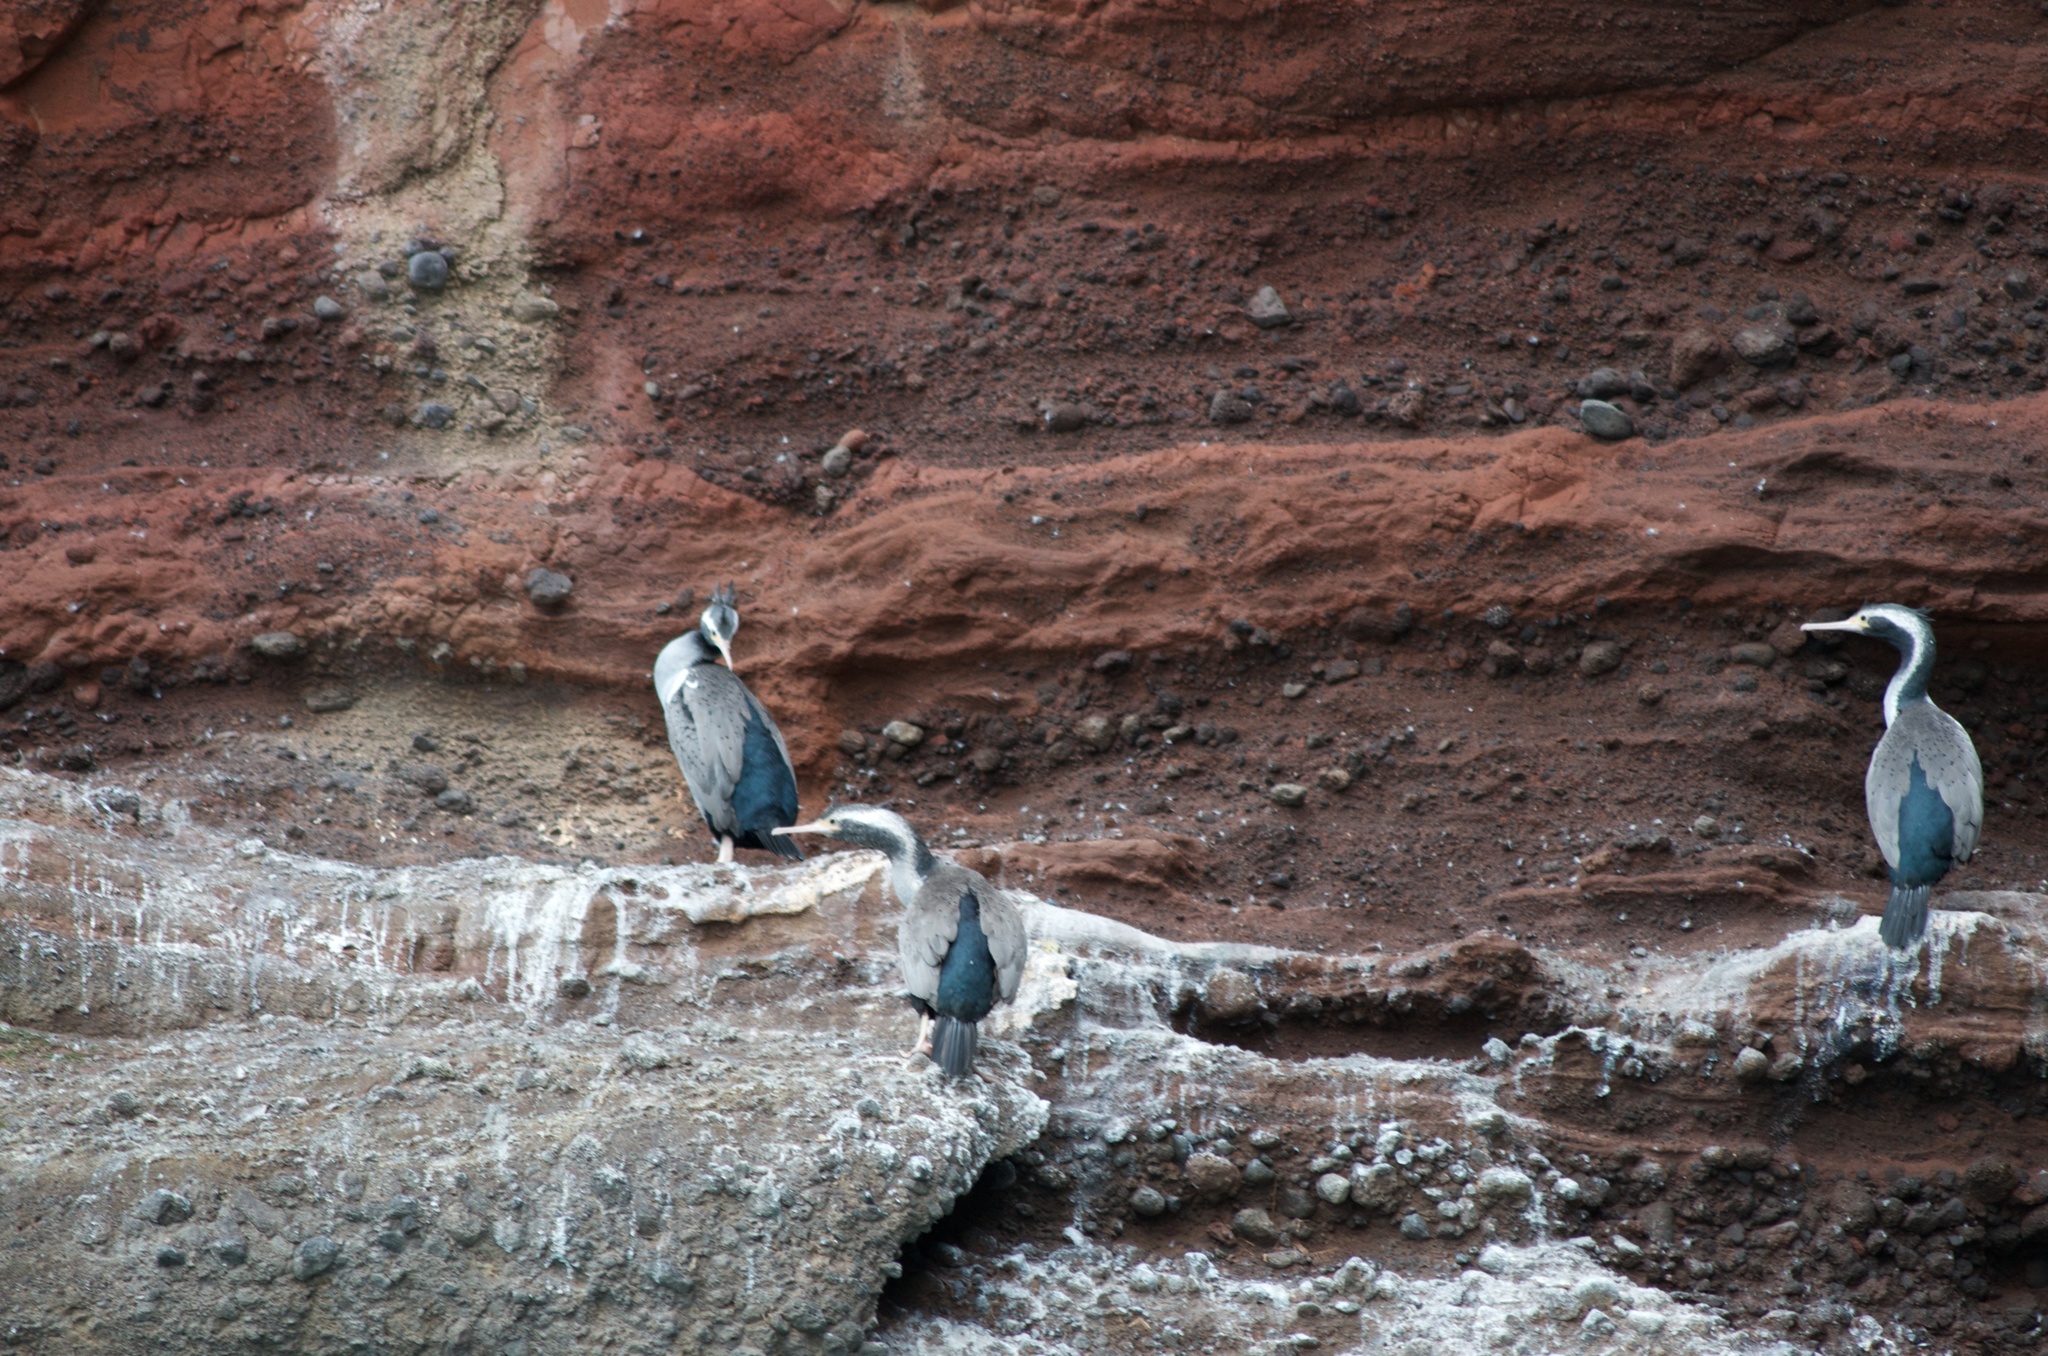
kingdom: Animalia
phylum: Chordata
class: Aves
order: Suliformes
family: Phalacrocoracidae
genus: Phalacrocorax
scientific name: Phalacrocorax punctatus
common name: Spotted shag
